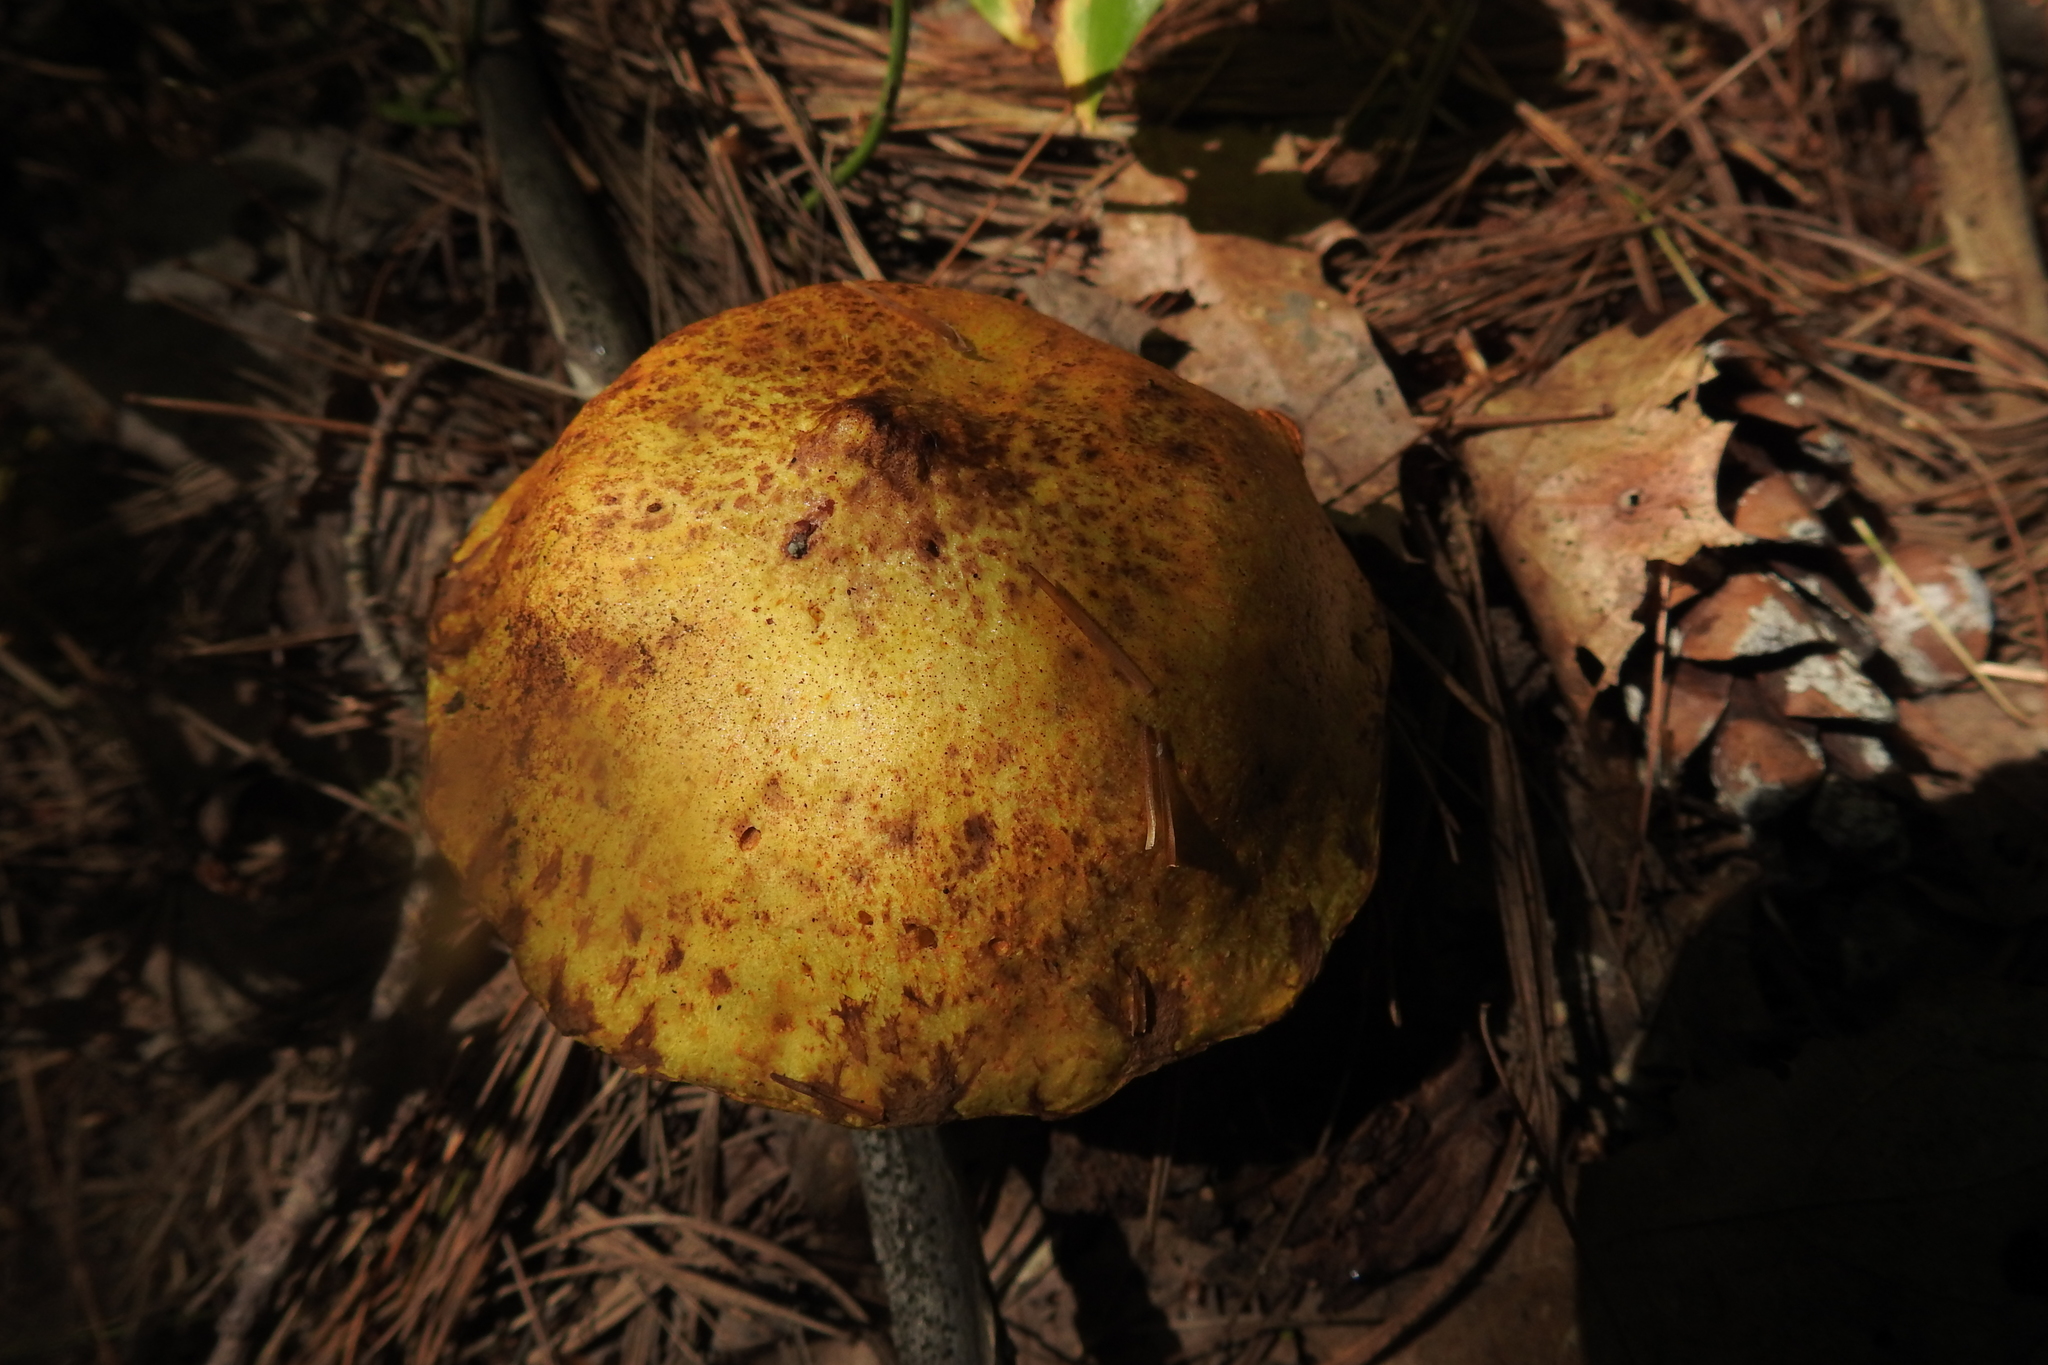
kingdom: Fungi
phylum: Basidiomycota
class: Agaricomycetes
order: Boletales
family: Suillaceae
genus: Suillus
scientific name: Suillus americanus
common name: Chicken fat mushroom
